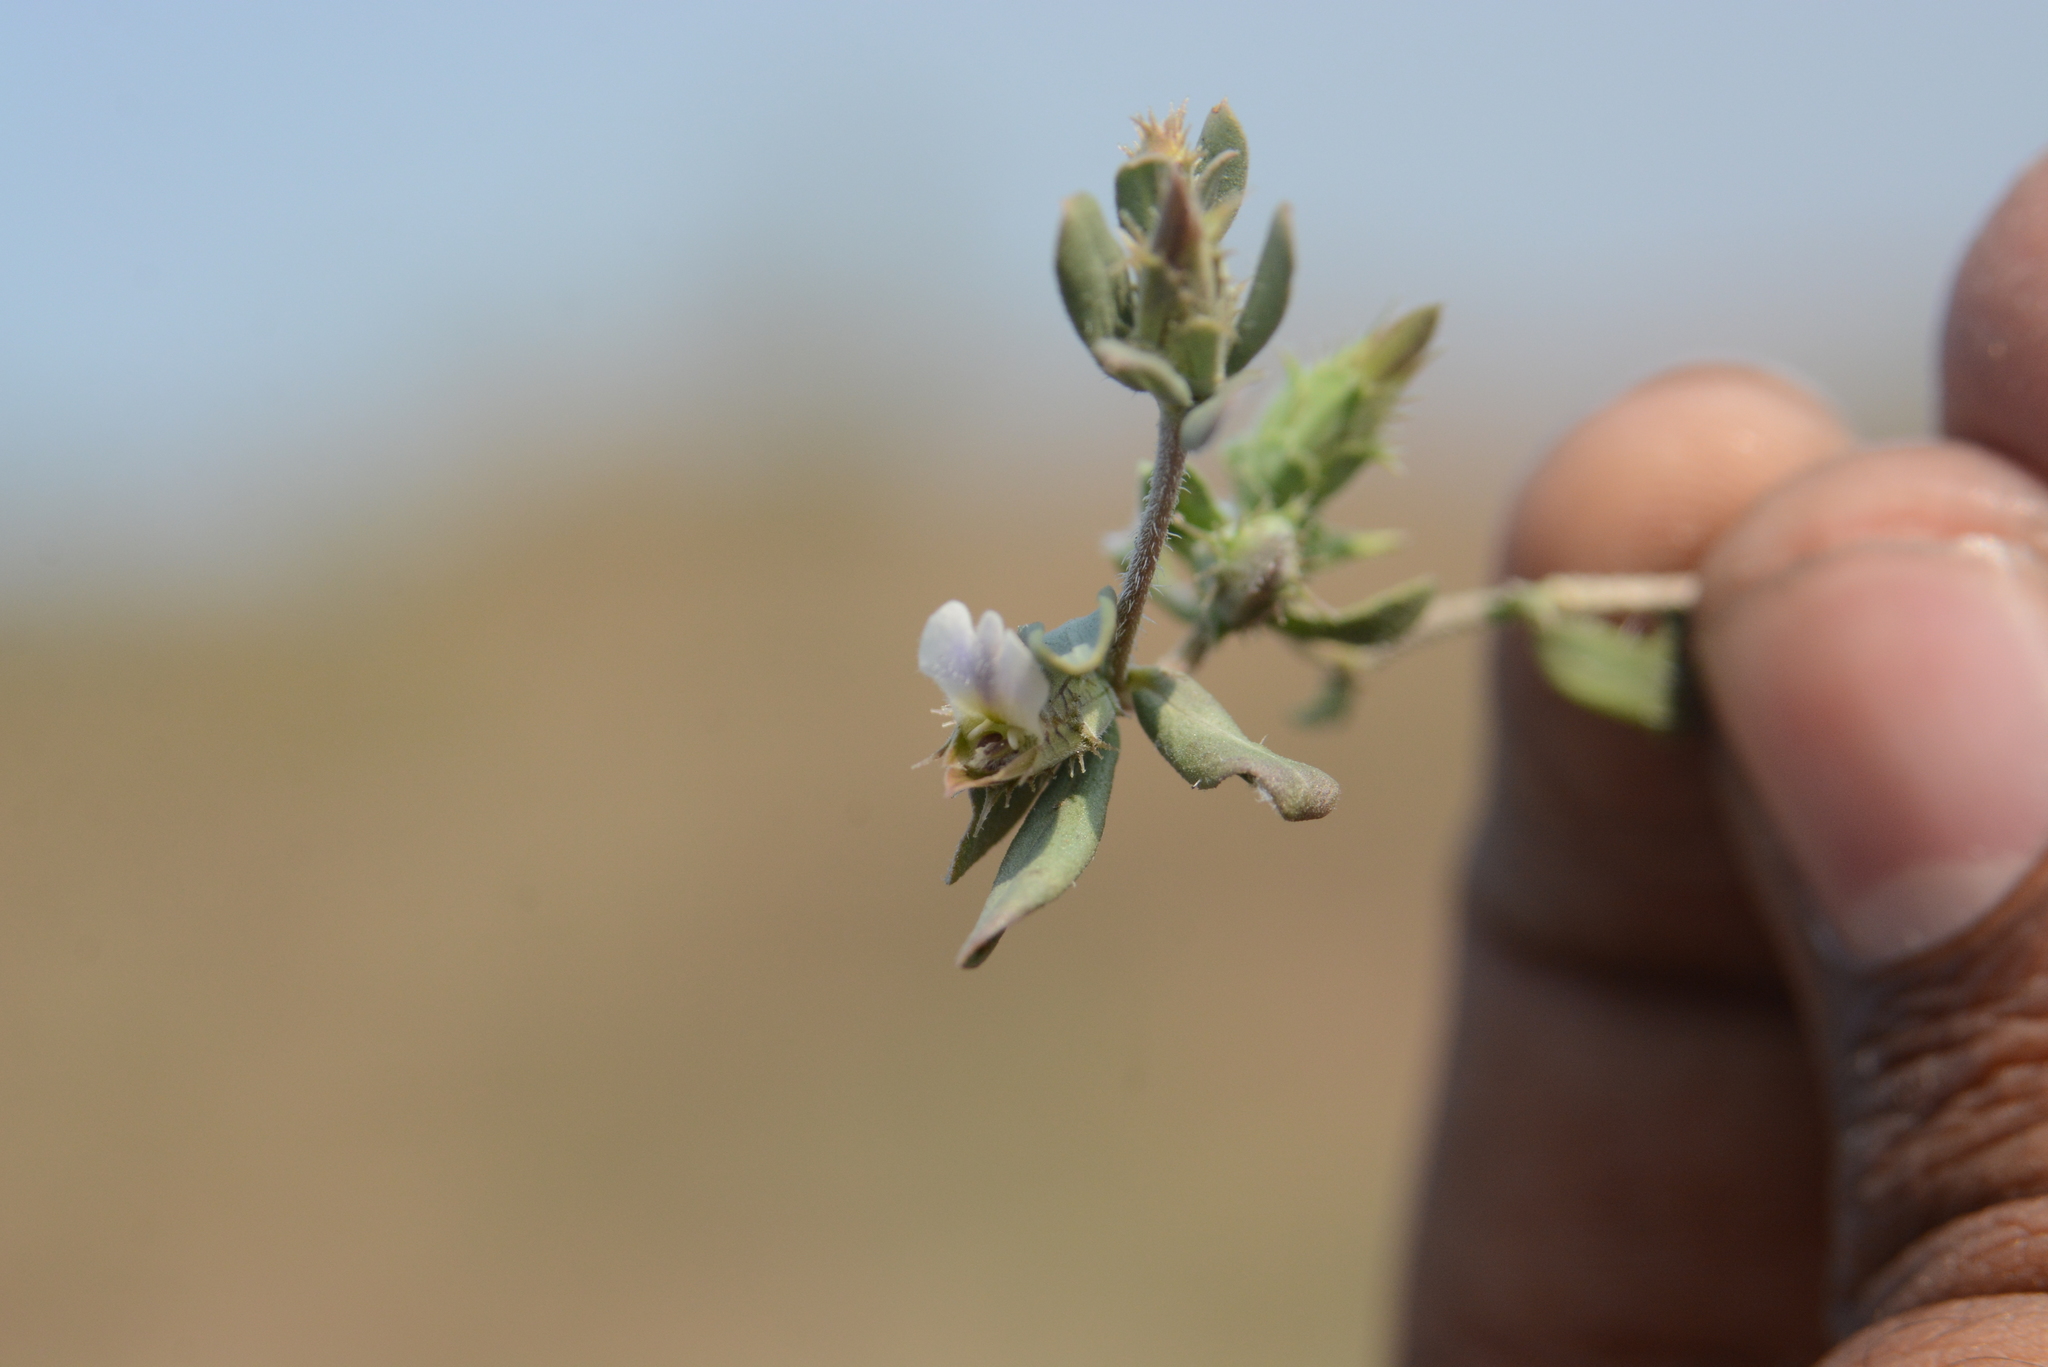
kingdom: Plantae
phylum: Tracheophyta
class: Magnoliopsida
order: Lamiales
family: Acanthaceae
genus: Blepharis
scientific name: Blepharis maderaspatensis
